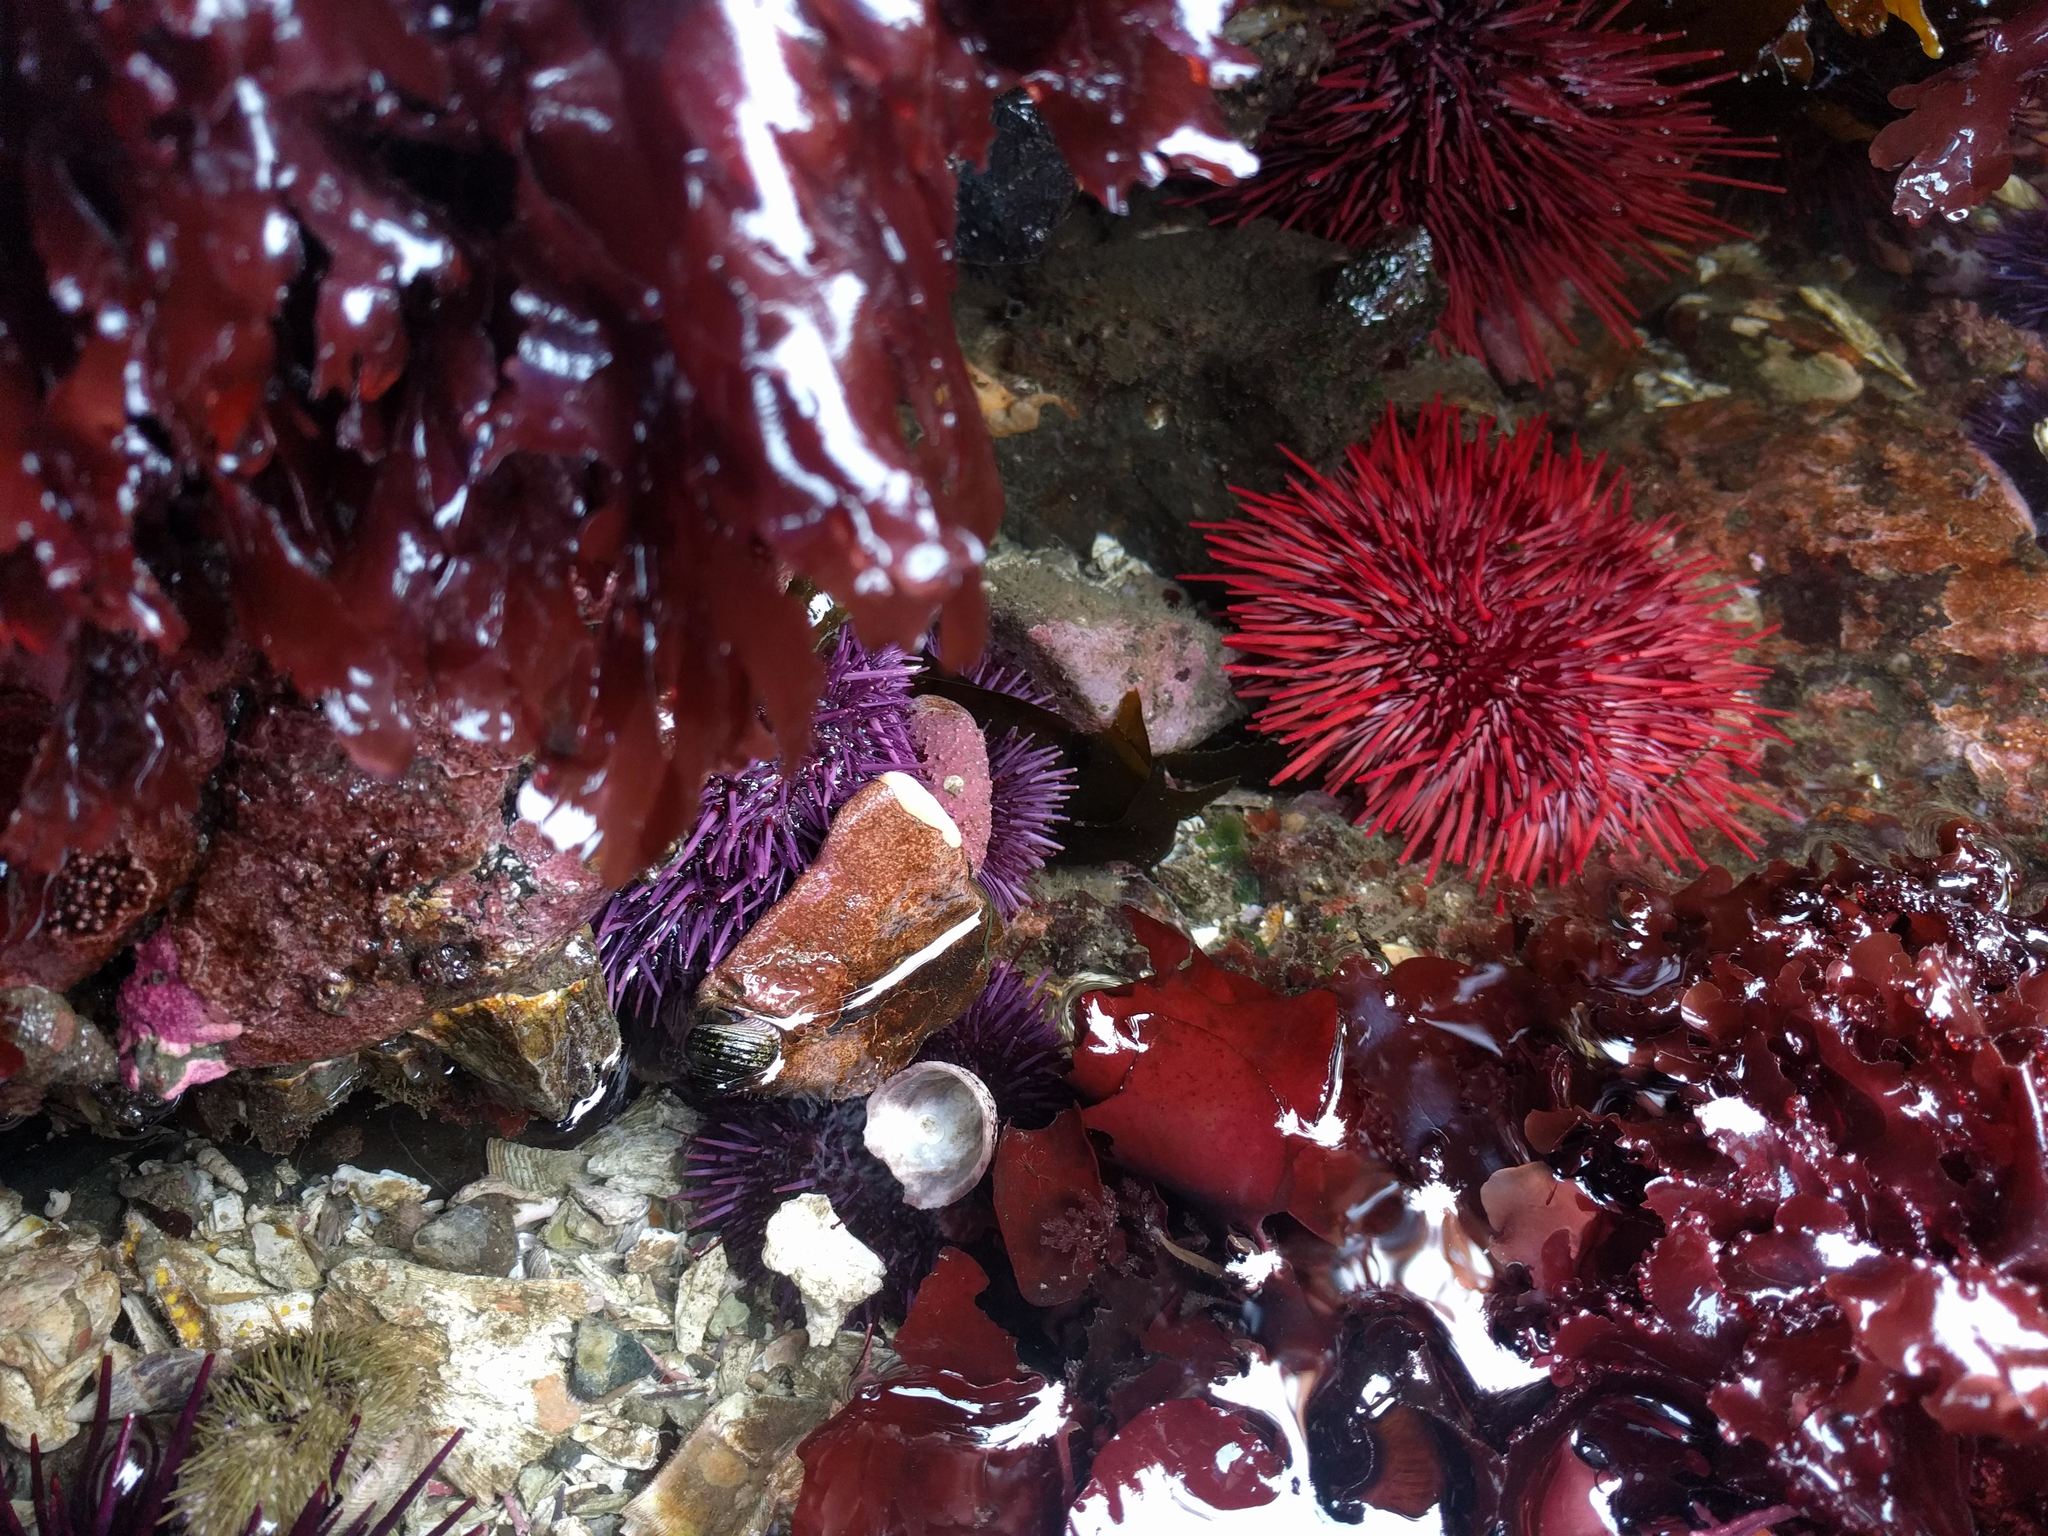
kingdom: Animalia
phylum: Echinodermata
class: Echinoidea
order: Camarodonta
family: Strongylocentrotidae
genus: Mesocentrotus
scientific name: Mesocentrotus franciscanus
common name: Red sea urchin
